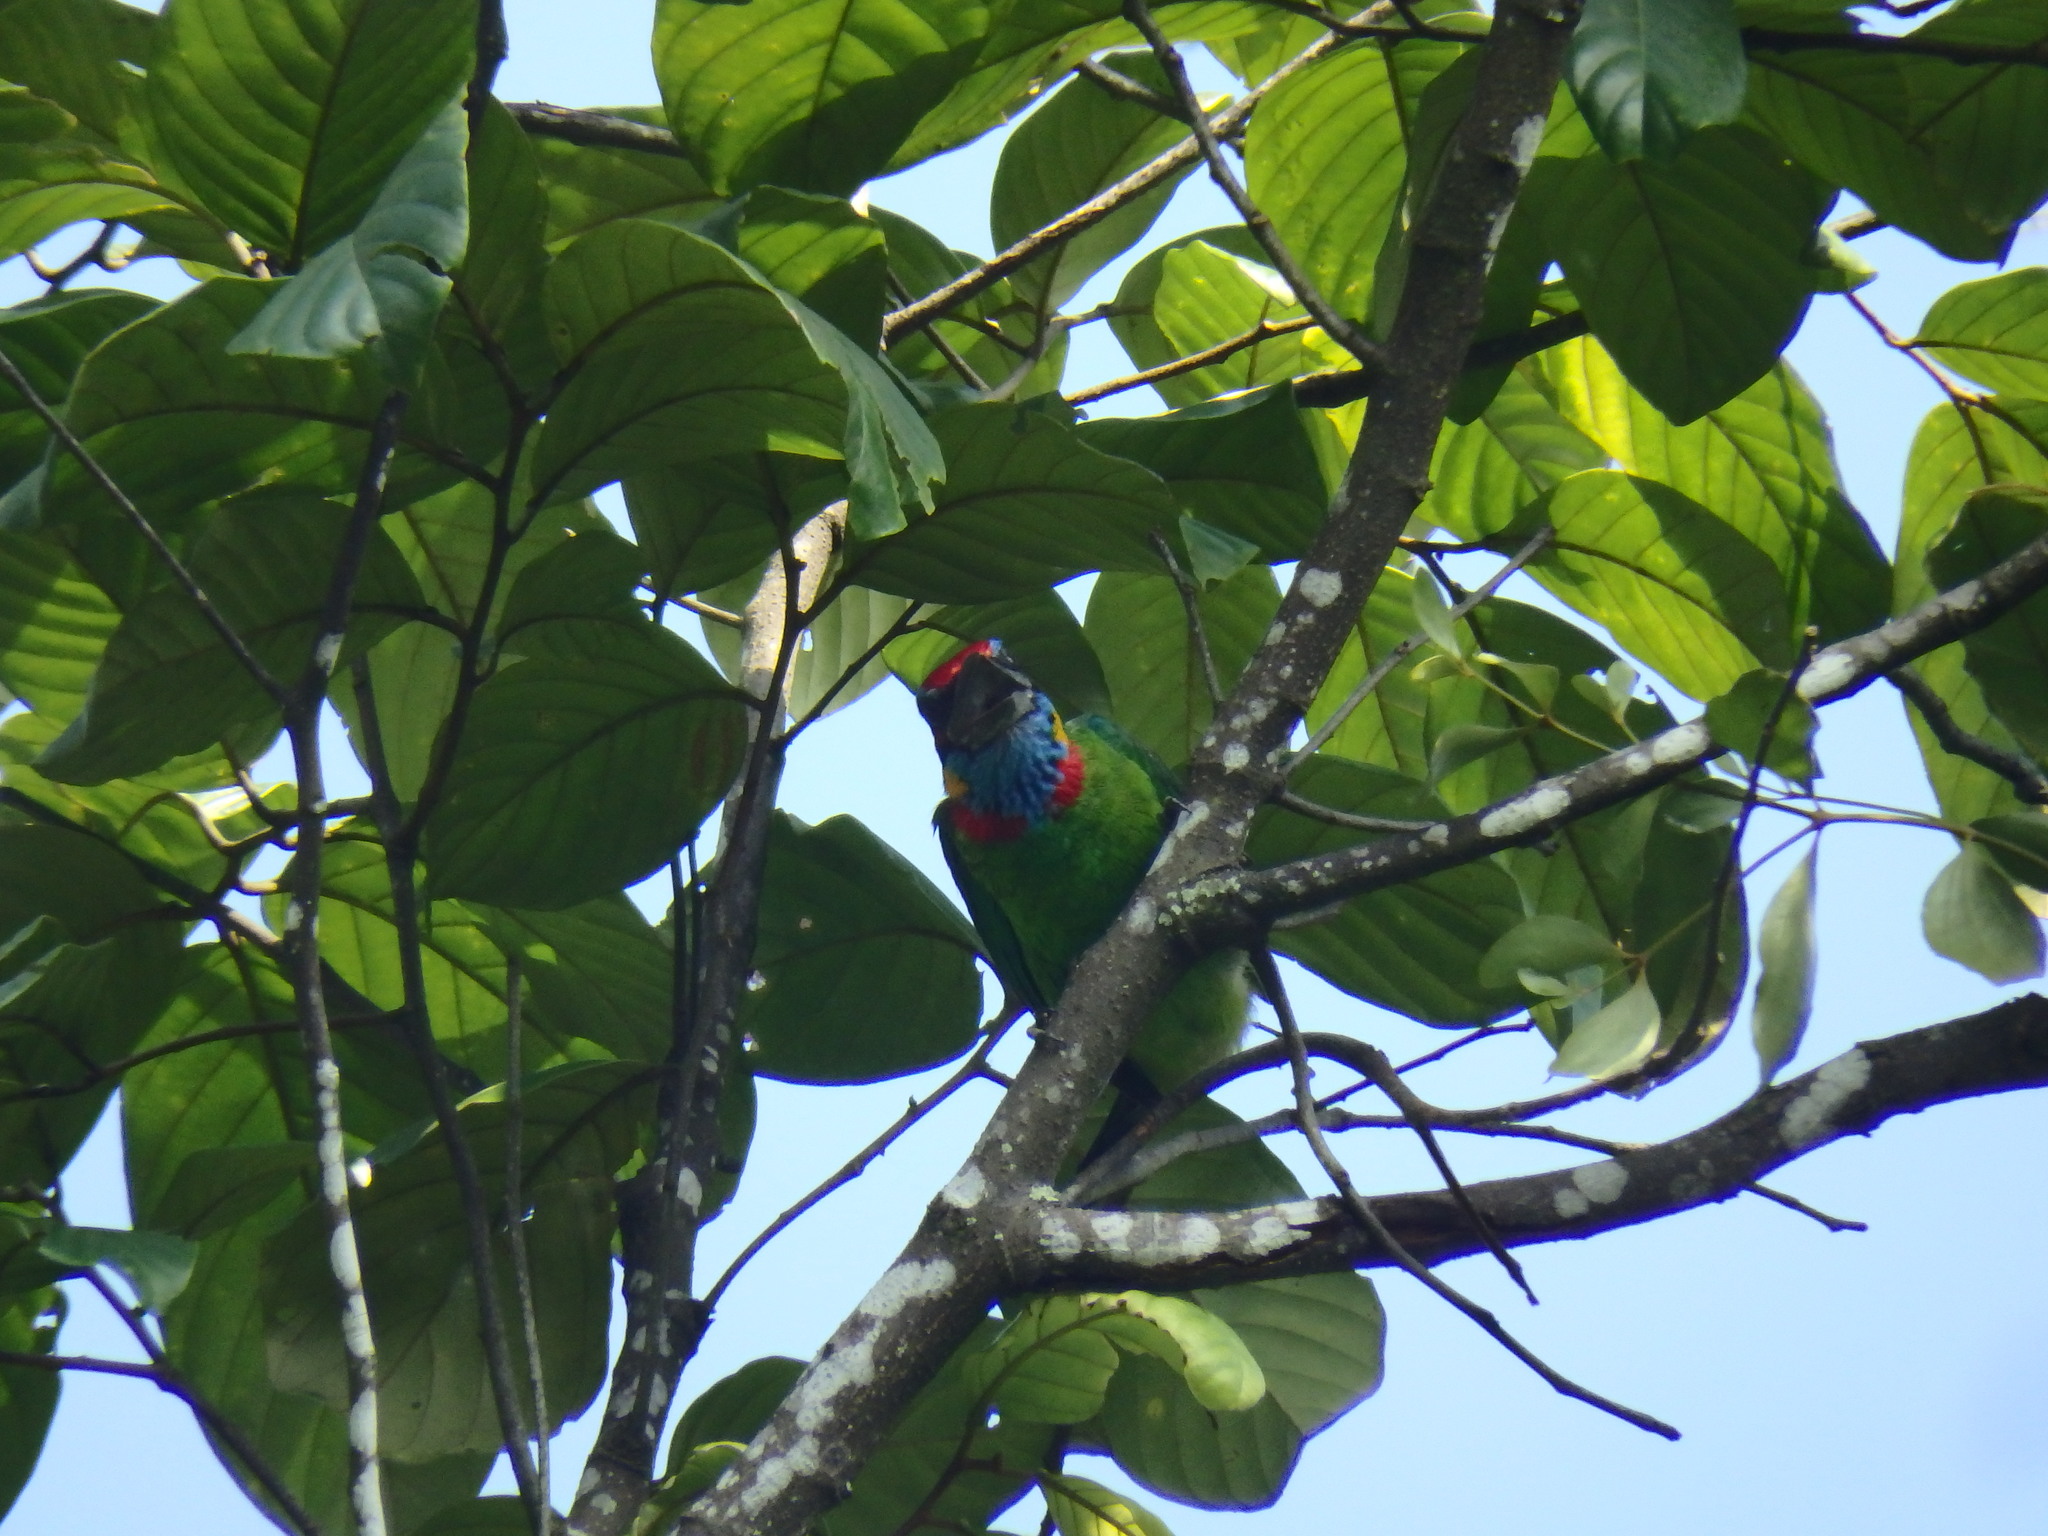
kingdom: Animalia
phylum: Chordata
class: Aves
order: Piciformes
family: Megalaimidae
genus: Psilopogon
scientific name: Psilopogon rafflesii
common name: Red-crowned barbet
